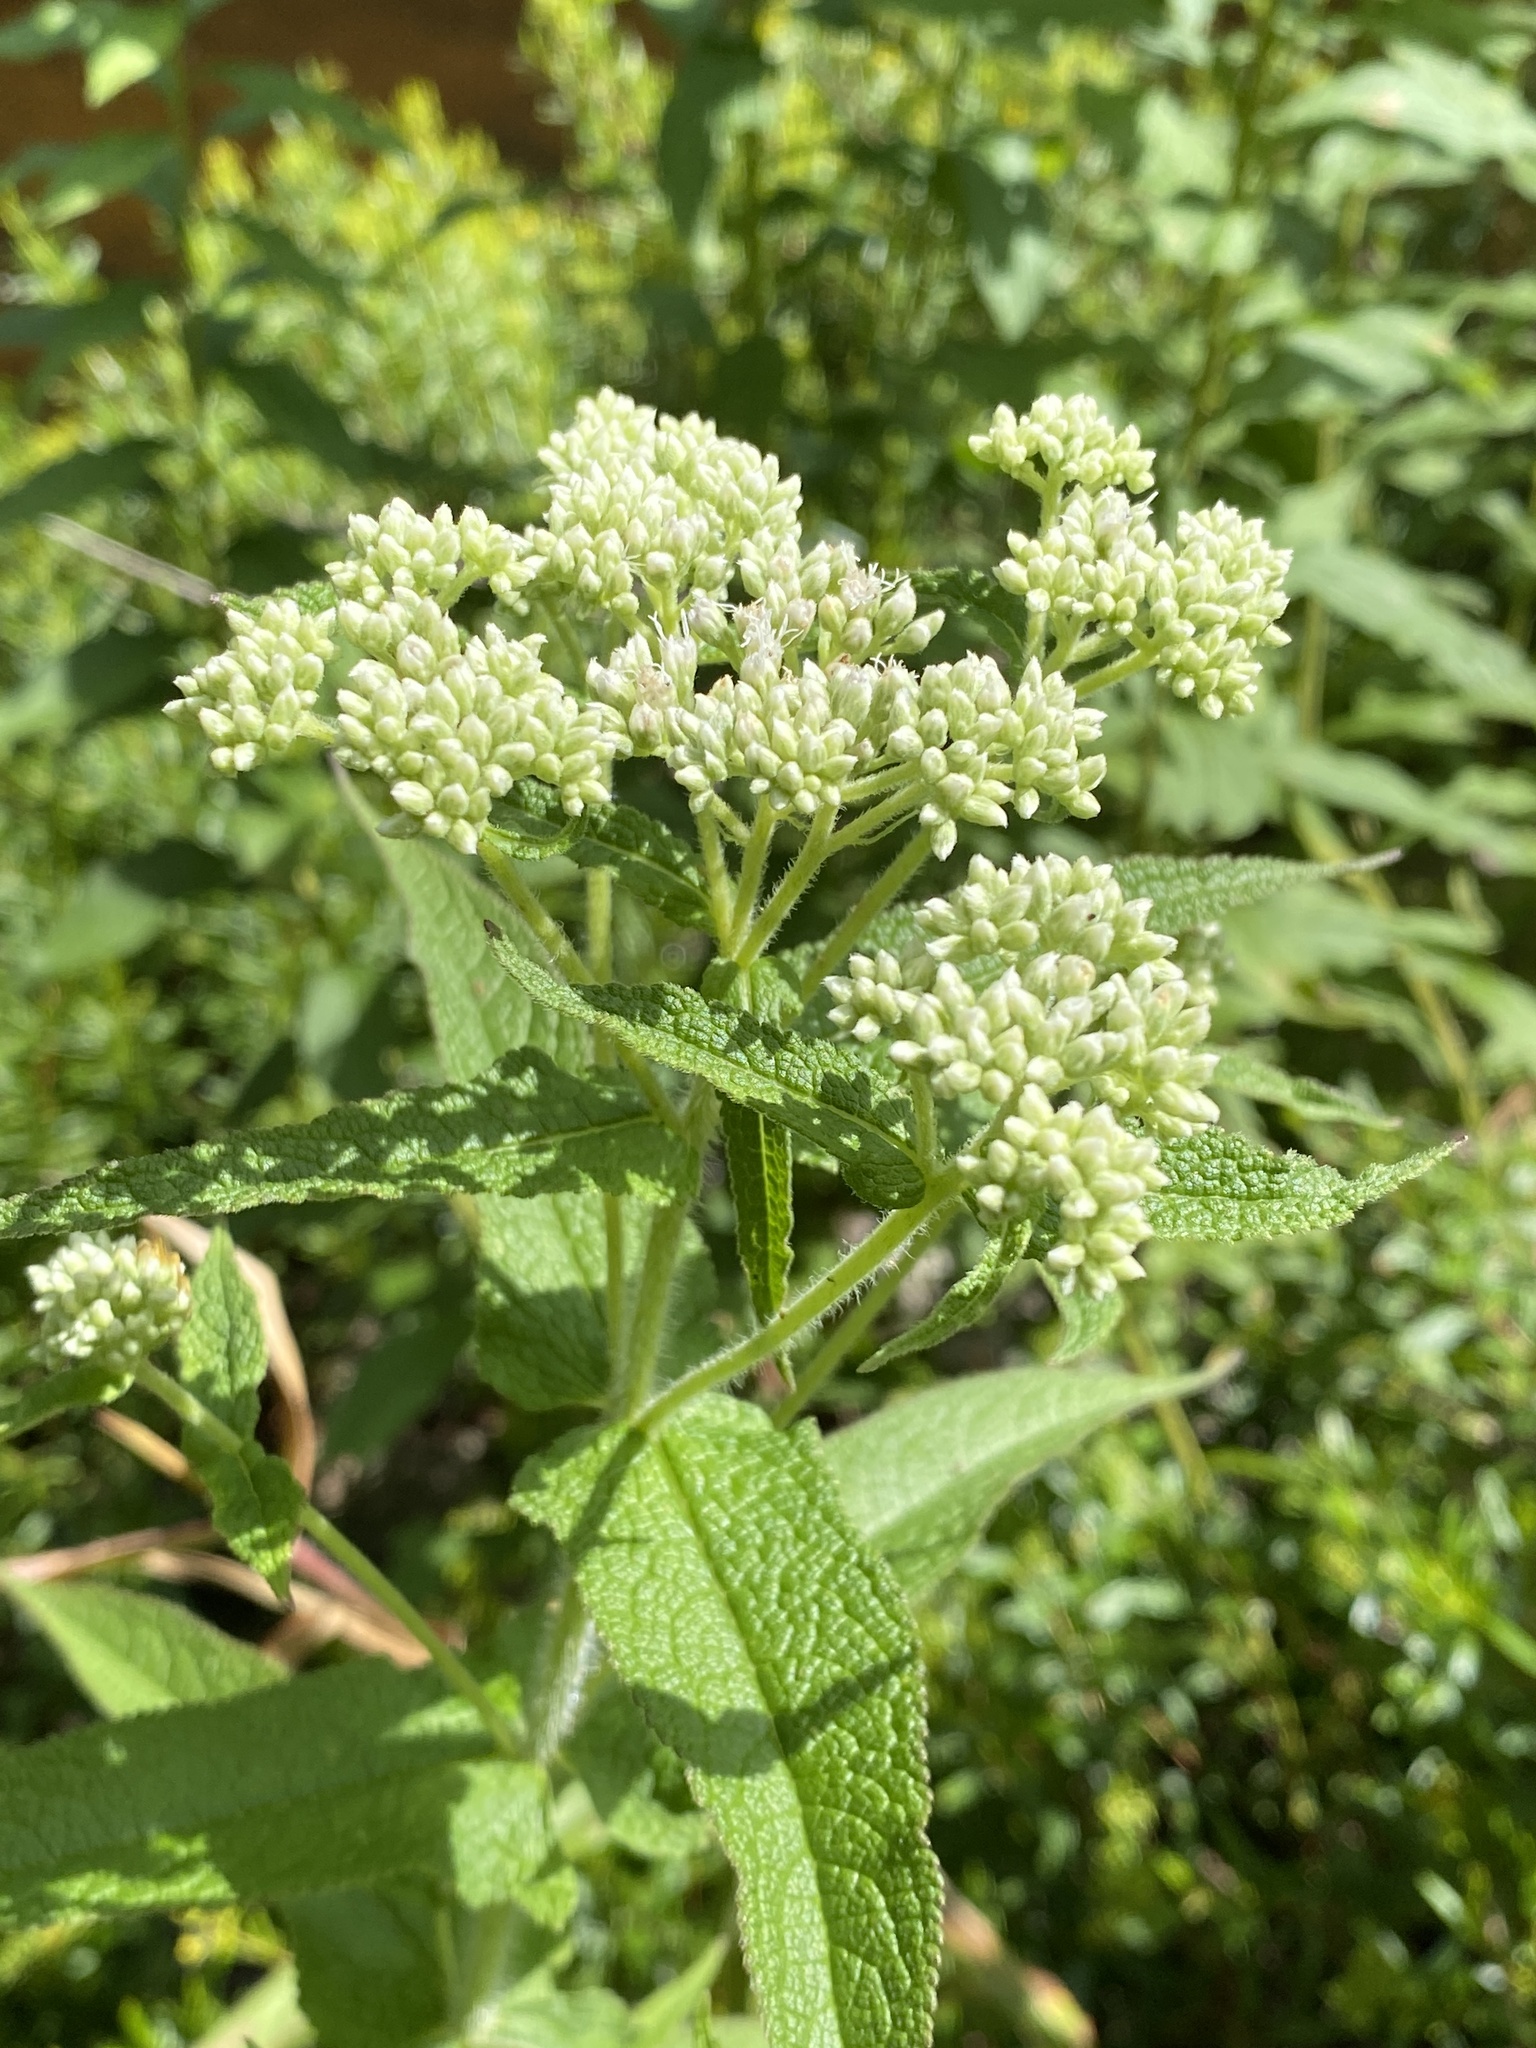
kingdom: Plantae
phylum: Tracheophyta
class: Magnoliopsida
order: Asterales
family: Asteraceae
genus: Eupatorium
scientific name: Eupatorium perfoliatum
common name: Boneset
